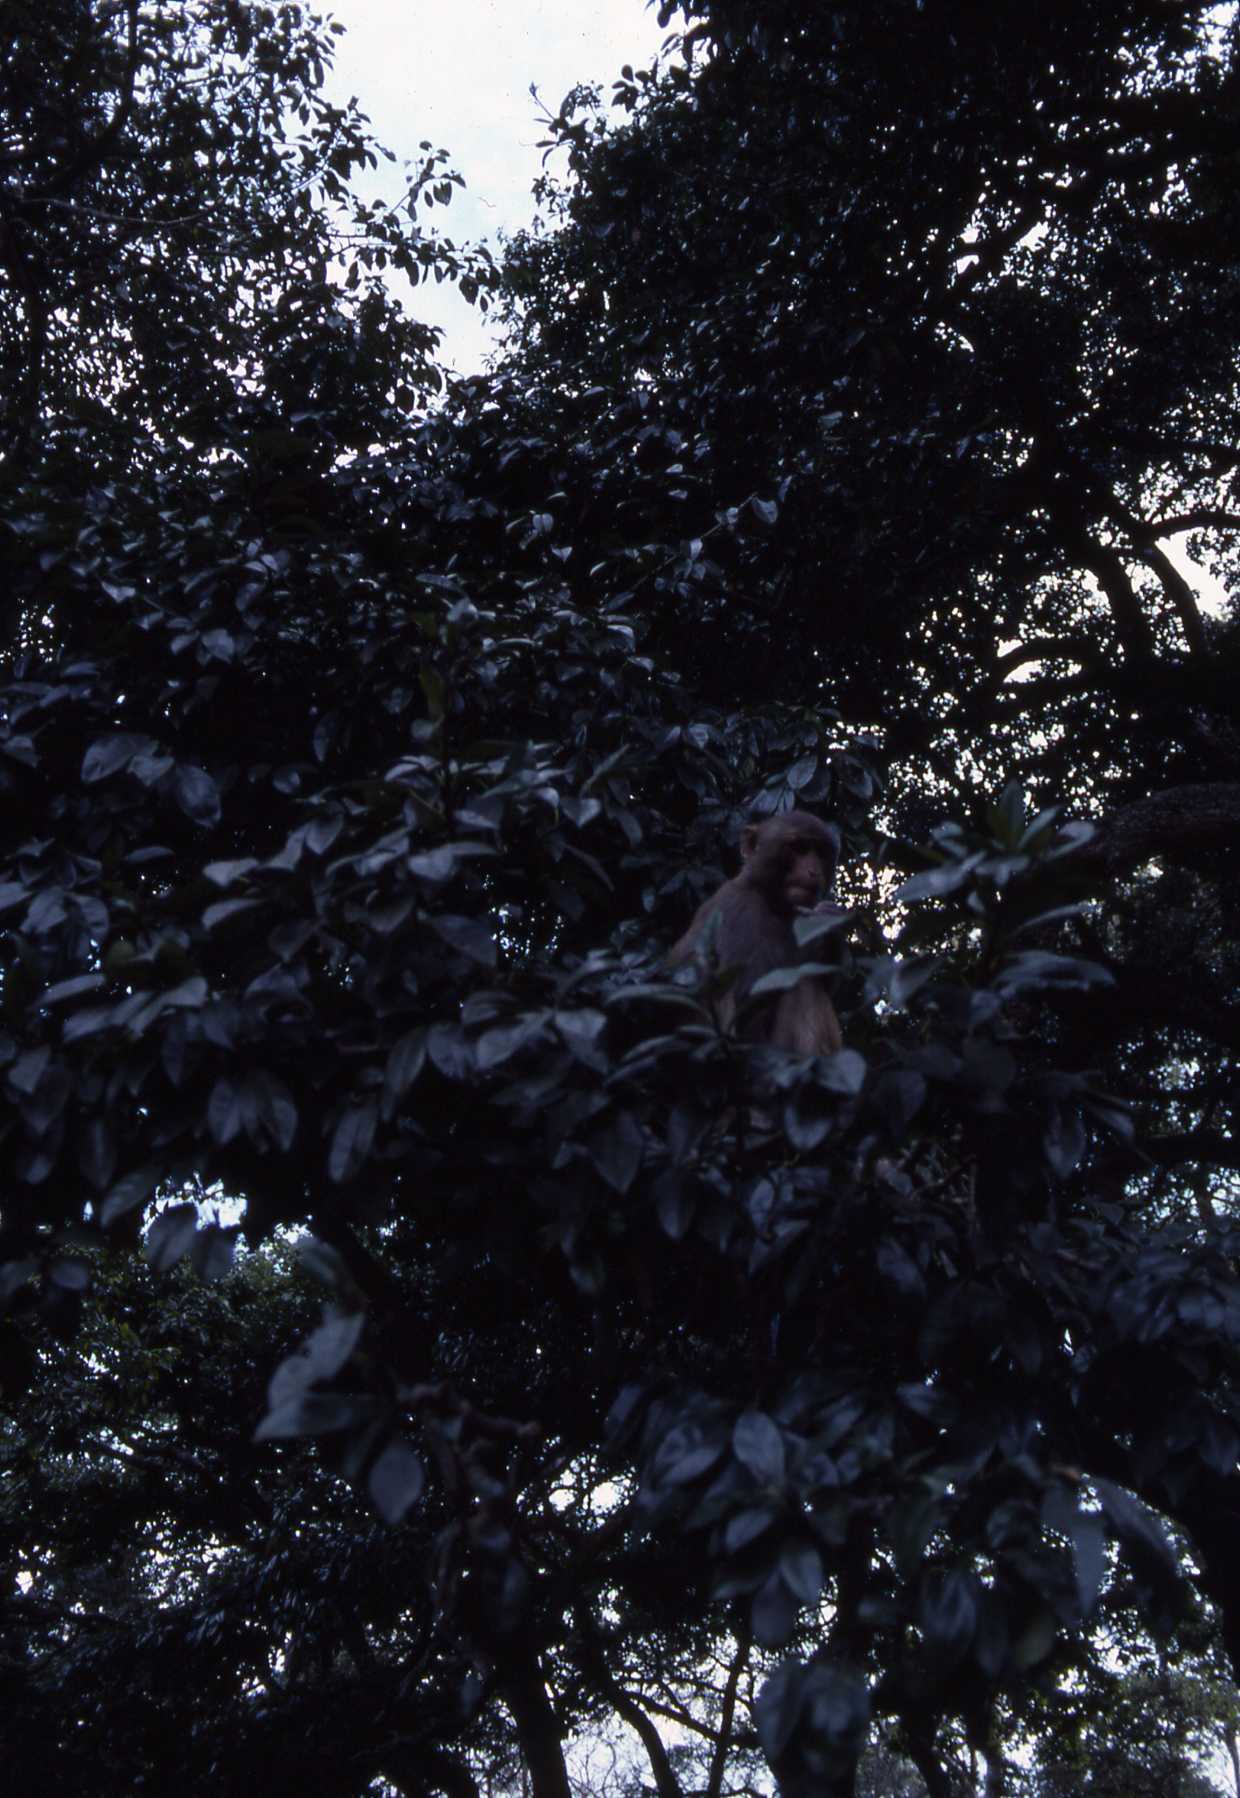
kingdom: Animalia
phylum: Chordata
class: Mammalia
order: Primates
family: Cercopithecidae
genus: Macaca
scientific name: Macaca mulatta
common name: Rhesus monkey
